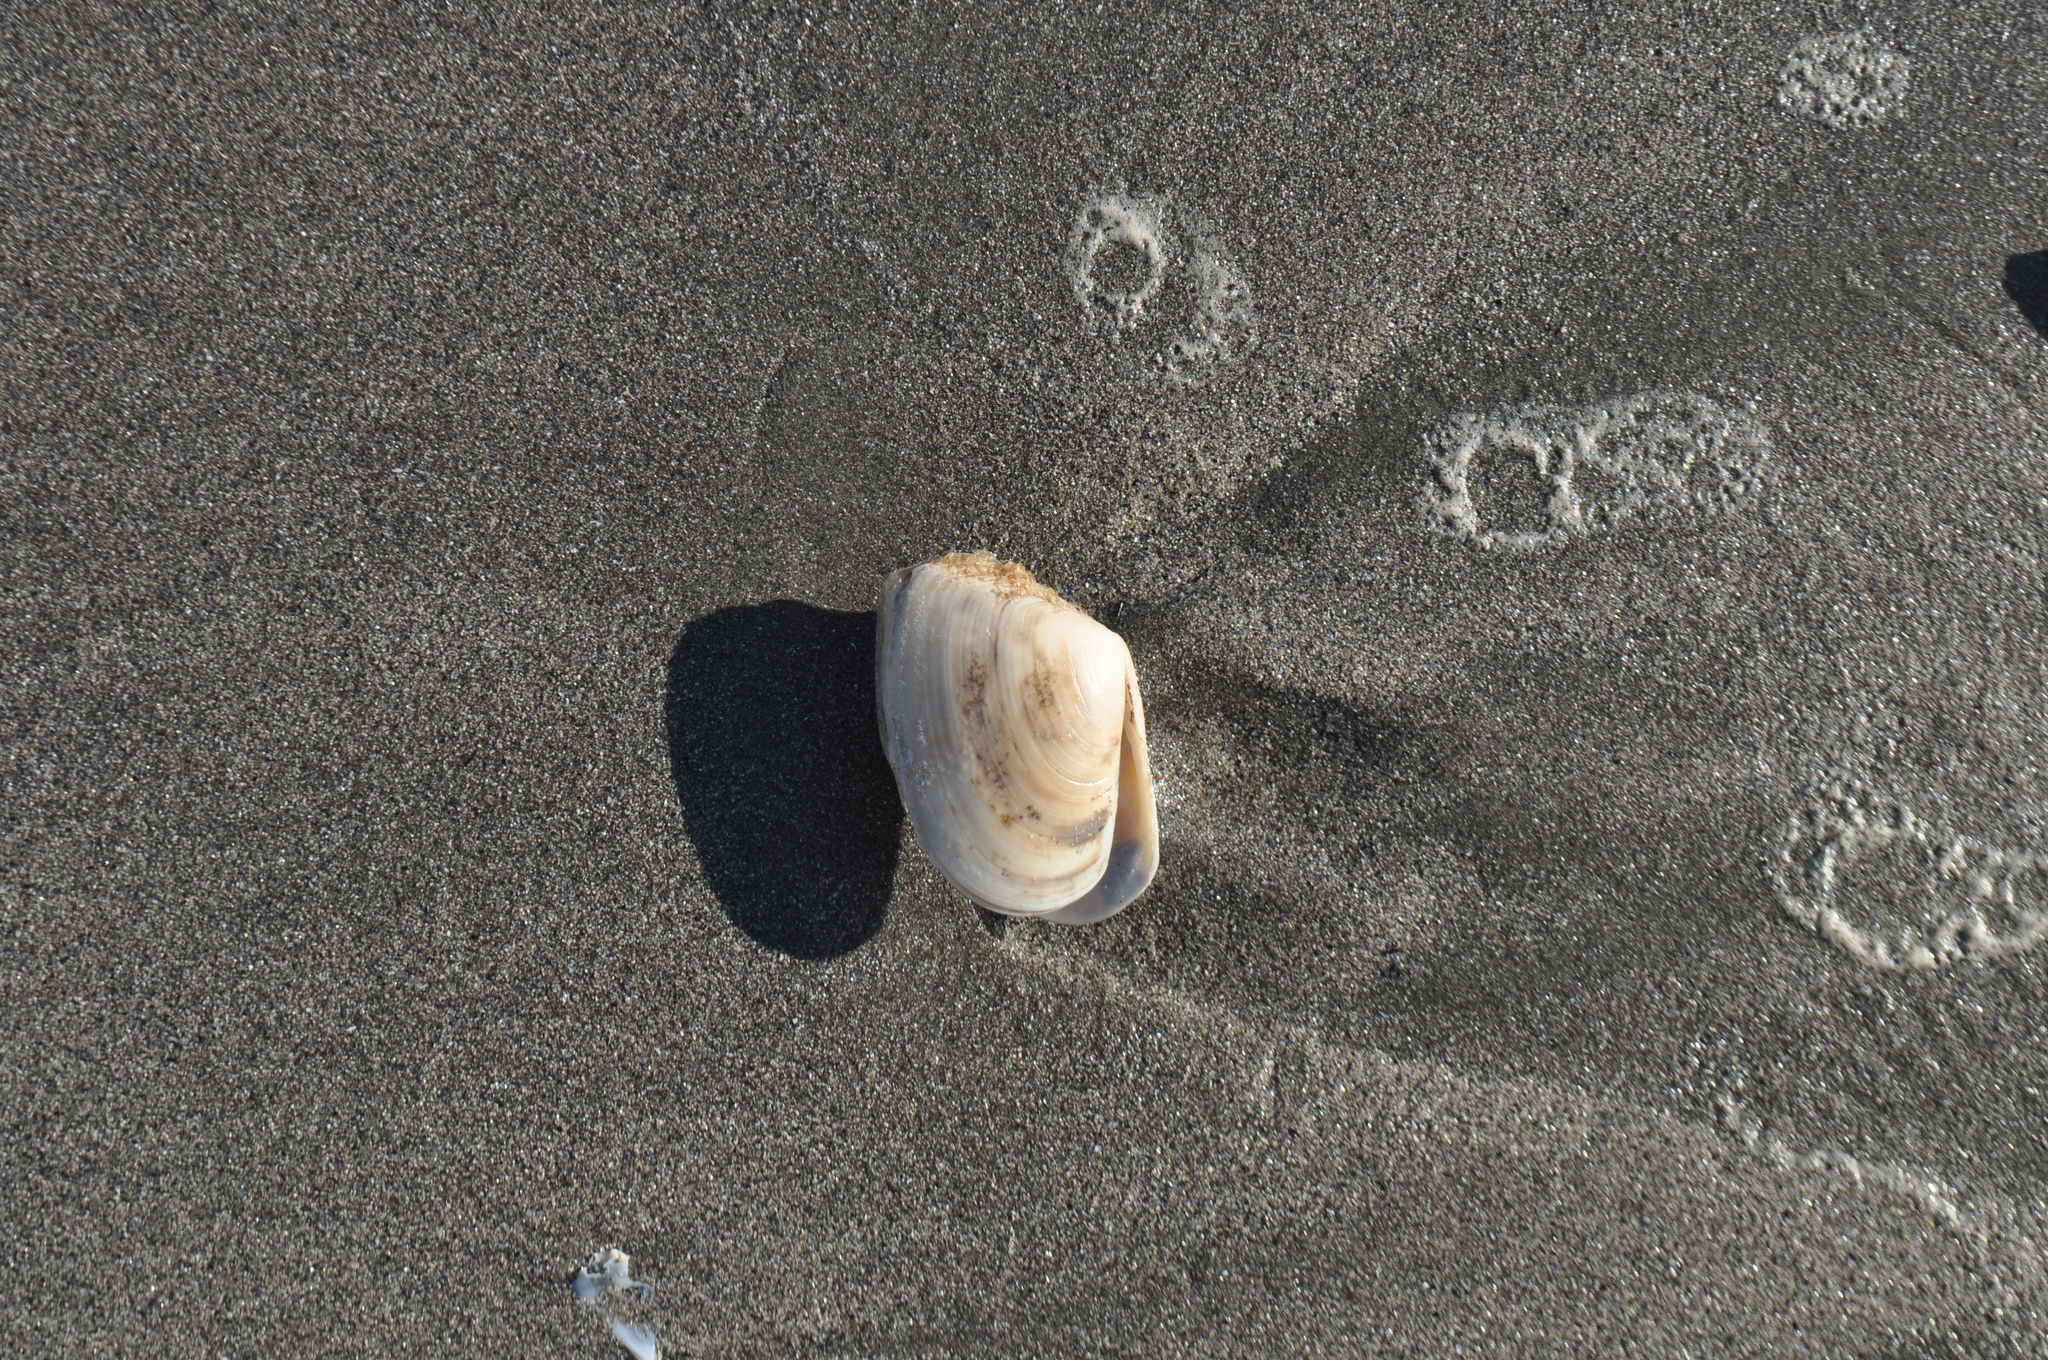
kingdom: Animalia
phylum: Mollusca
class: Bivalvia
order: Venerida
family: Mesodesmatidae
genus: Paphies
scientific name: Paphies donacina
